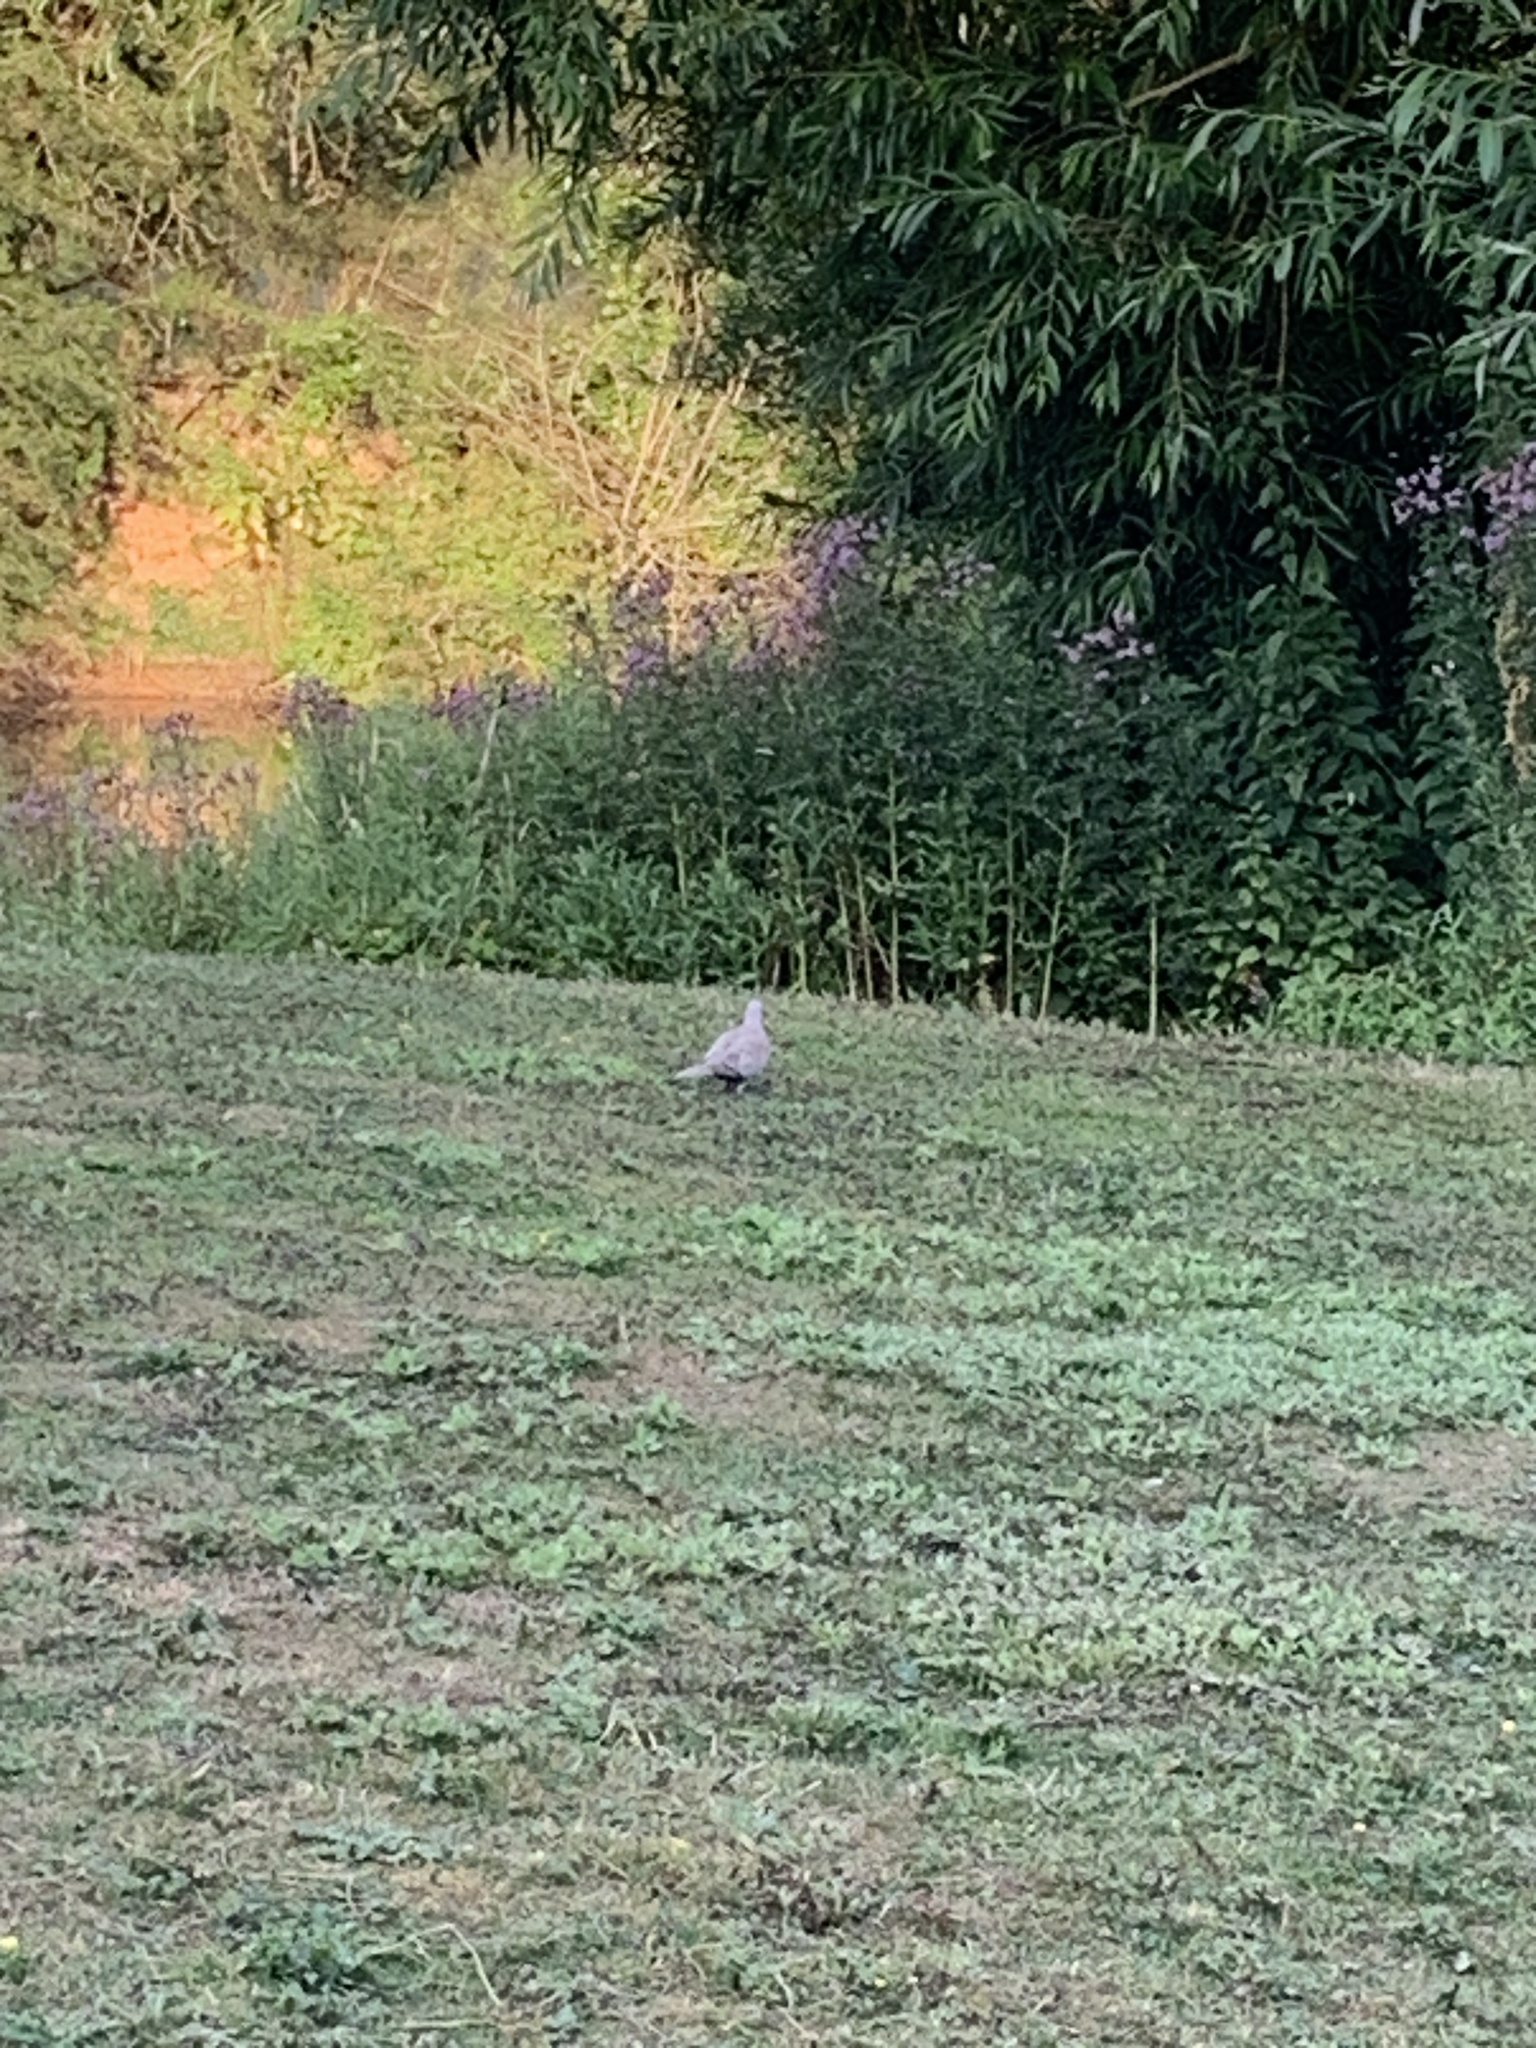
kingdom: Animalia
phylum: Chordata
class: Aves
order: Columbiformes
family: Columbidae
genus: Streptopelia
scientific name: Streptopelia decaocto
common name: Eurasian collared dove
